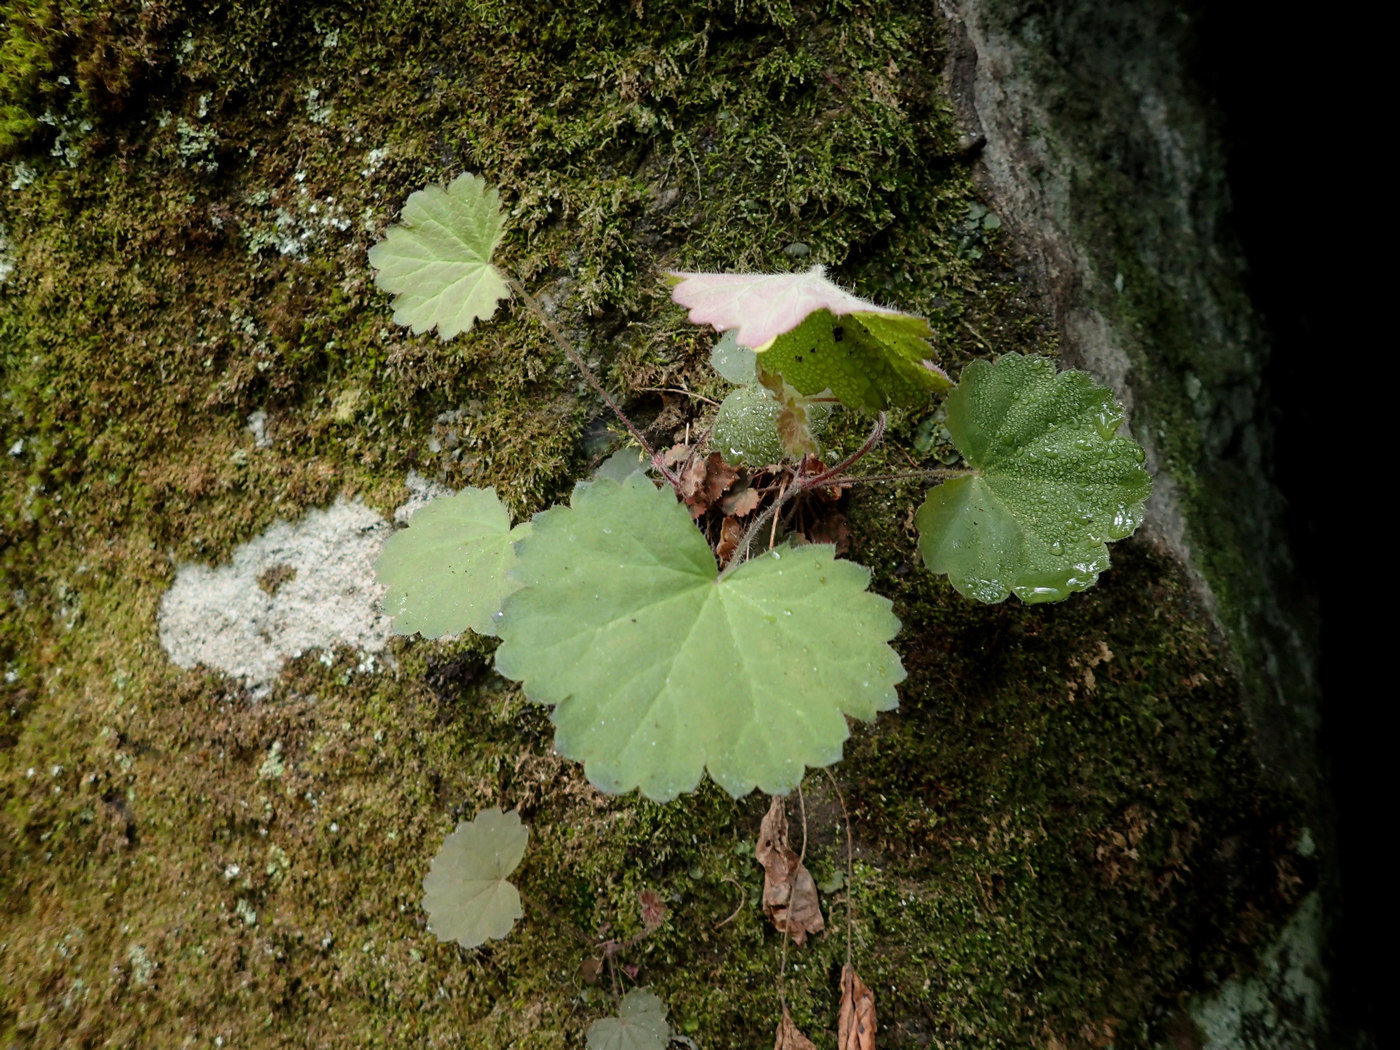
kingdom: Plantae
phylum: Tracheophyta
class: Magnoliopsida
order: Saxifragales
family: Saxifragaceae
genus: Heuchera
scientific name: Heuchera parviflora
